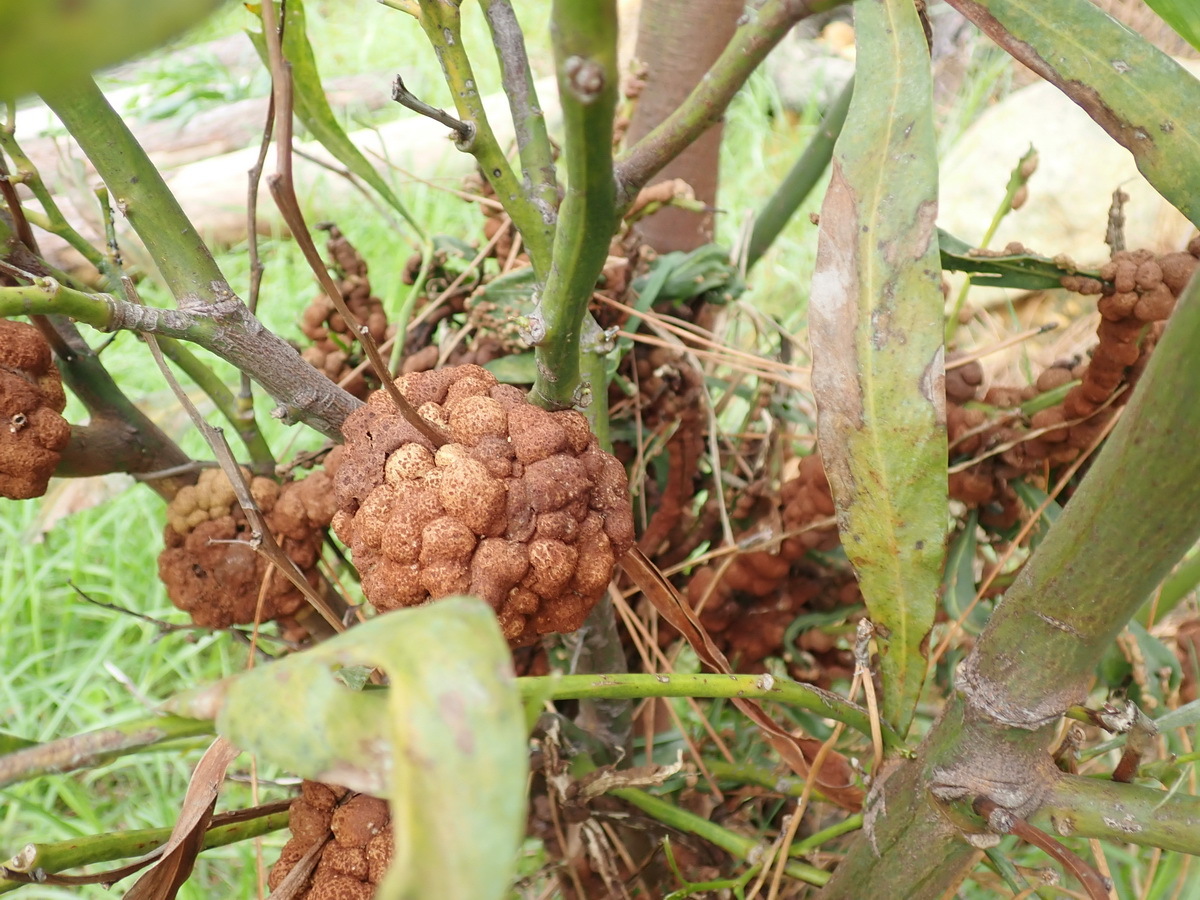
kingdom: Fungi
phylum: Basidiomycota
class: Pucciniomycetes
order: Pucciniales
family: Uromycladiaceae
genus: Uromycladium
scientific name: Uromycladium morrisii
